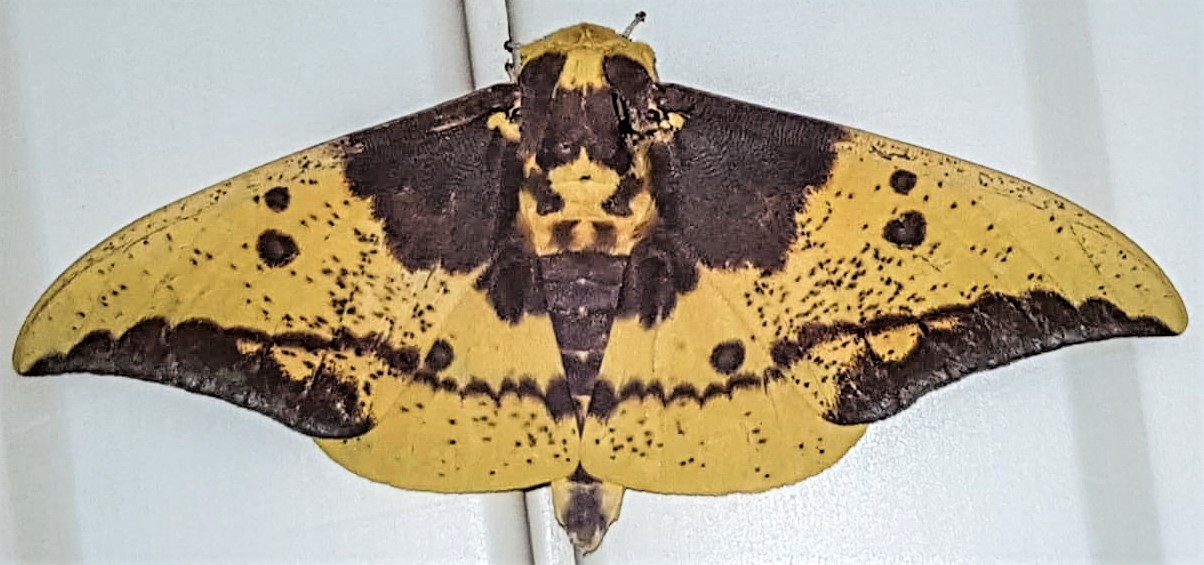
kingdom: Animalia
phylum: Arthropoda
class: Insecta
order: Lepidoptera
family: Saturniidae
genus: Eacles
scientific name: Eacles imperialis
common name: Imperial moth
